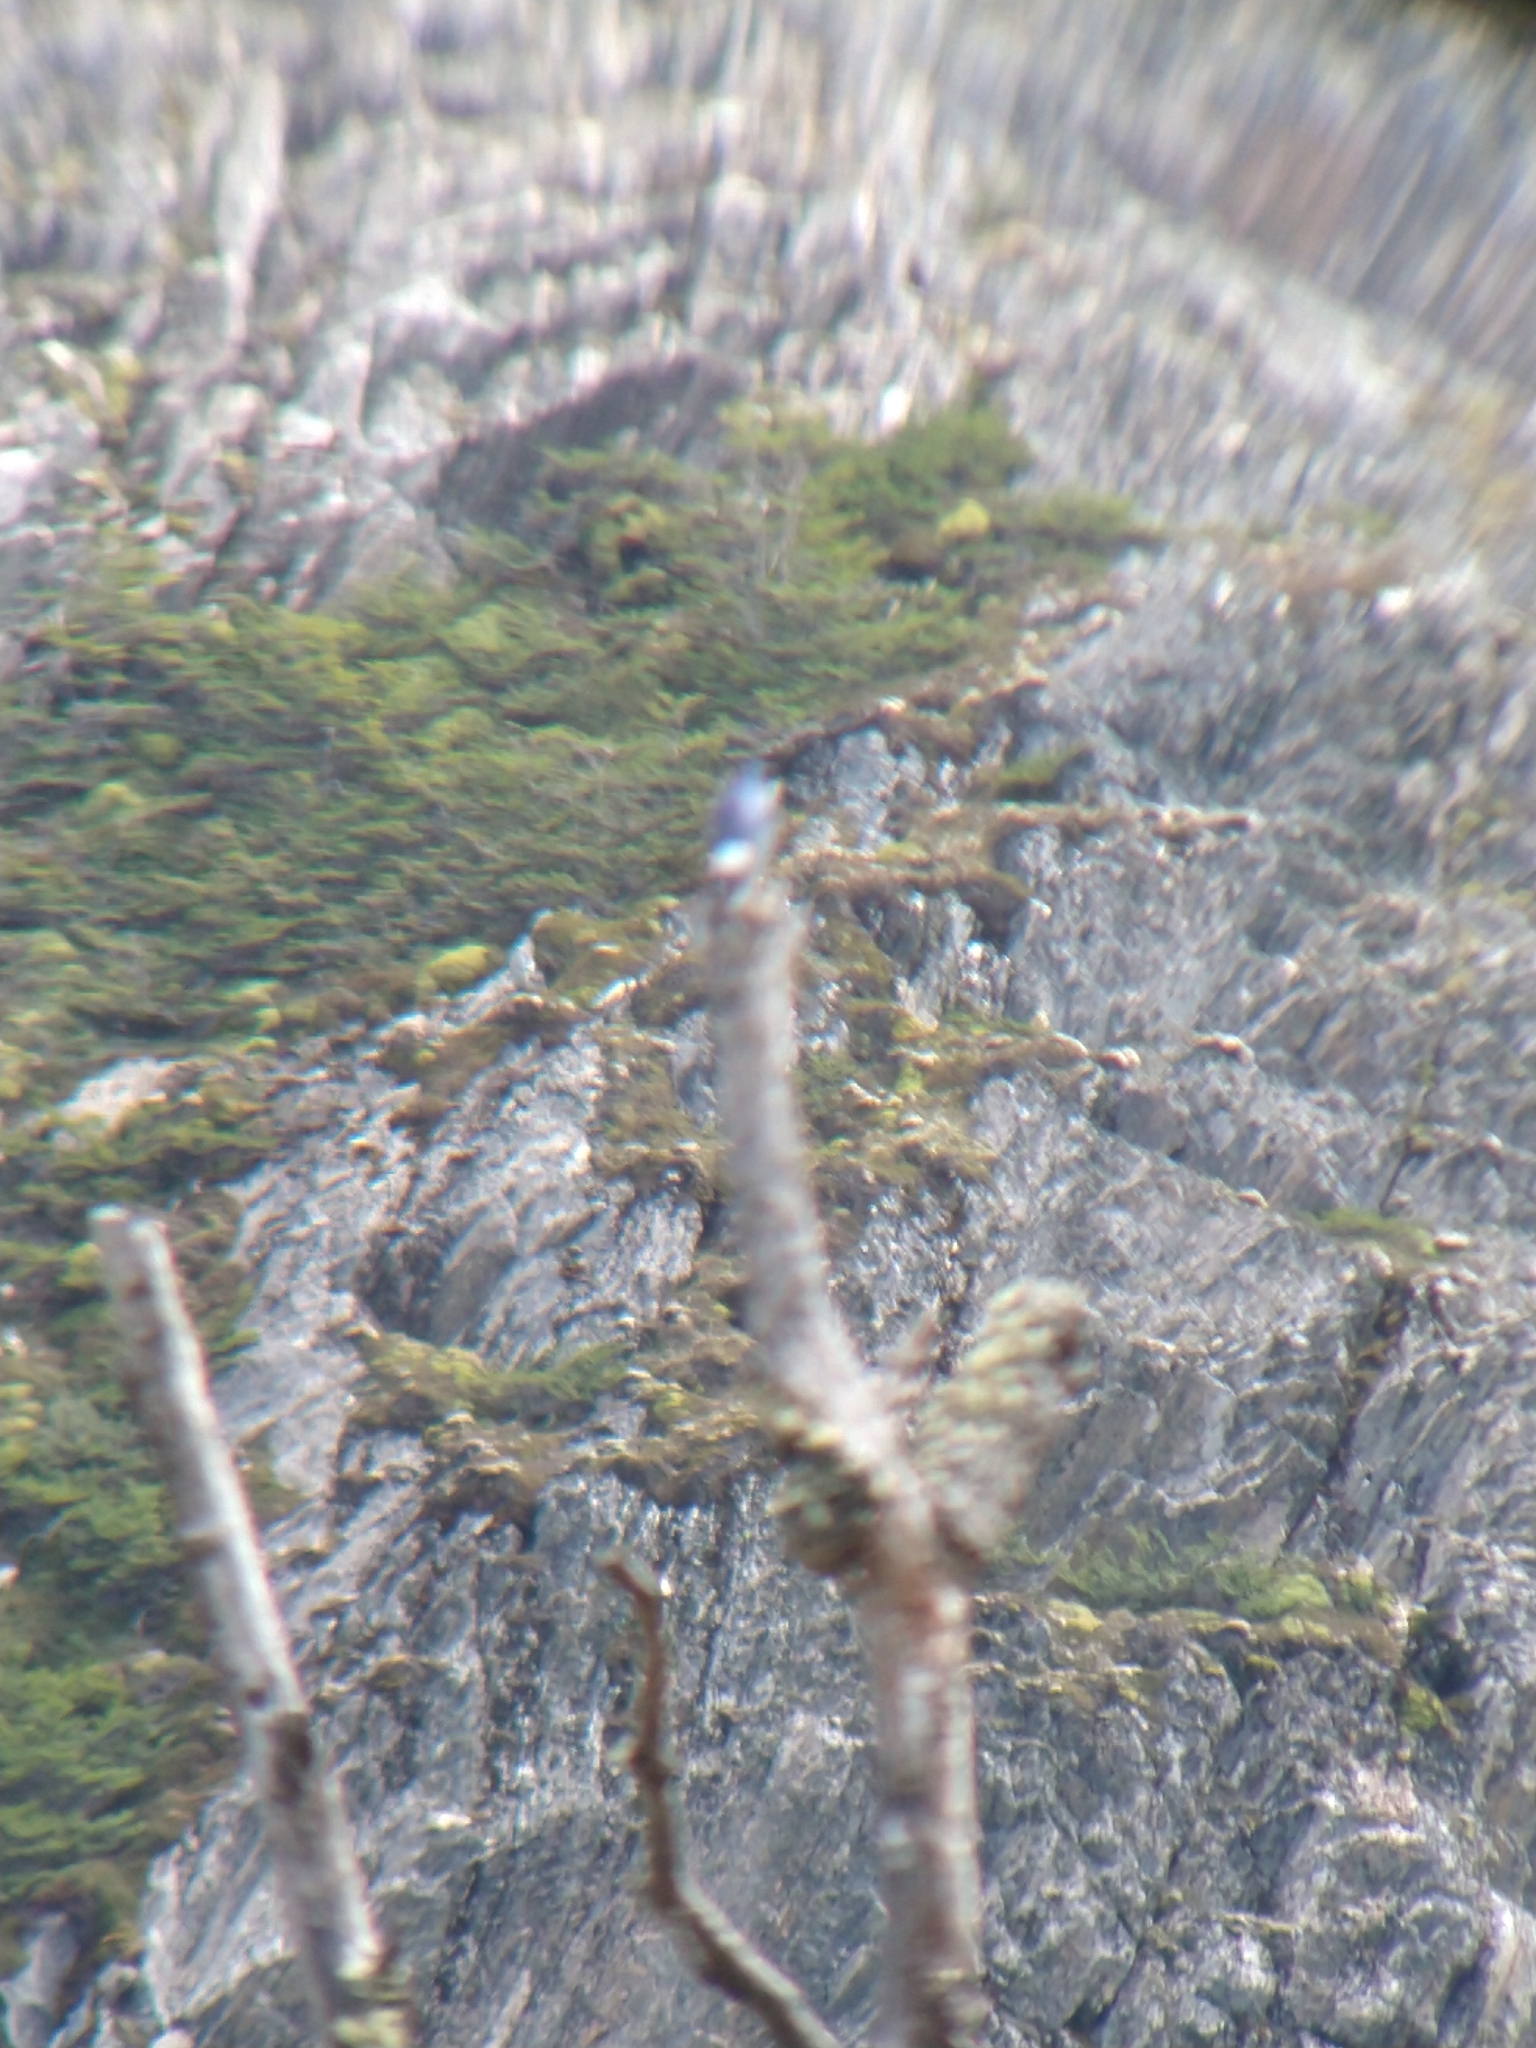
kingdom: Animalia
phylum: Chordata
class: Aves
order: Passeriformes
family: Hirundinidae
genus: Tachycineta
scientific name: Tachycineta leucopyga
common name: Chilean swallow
